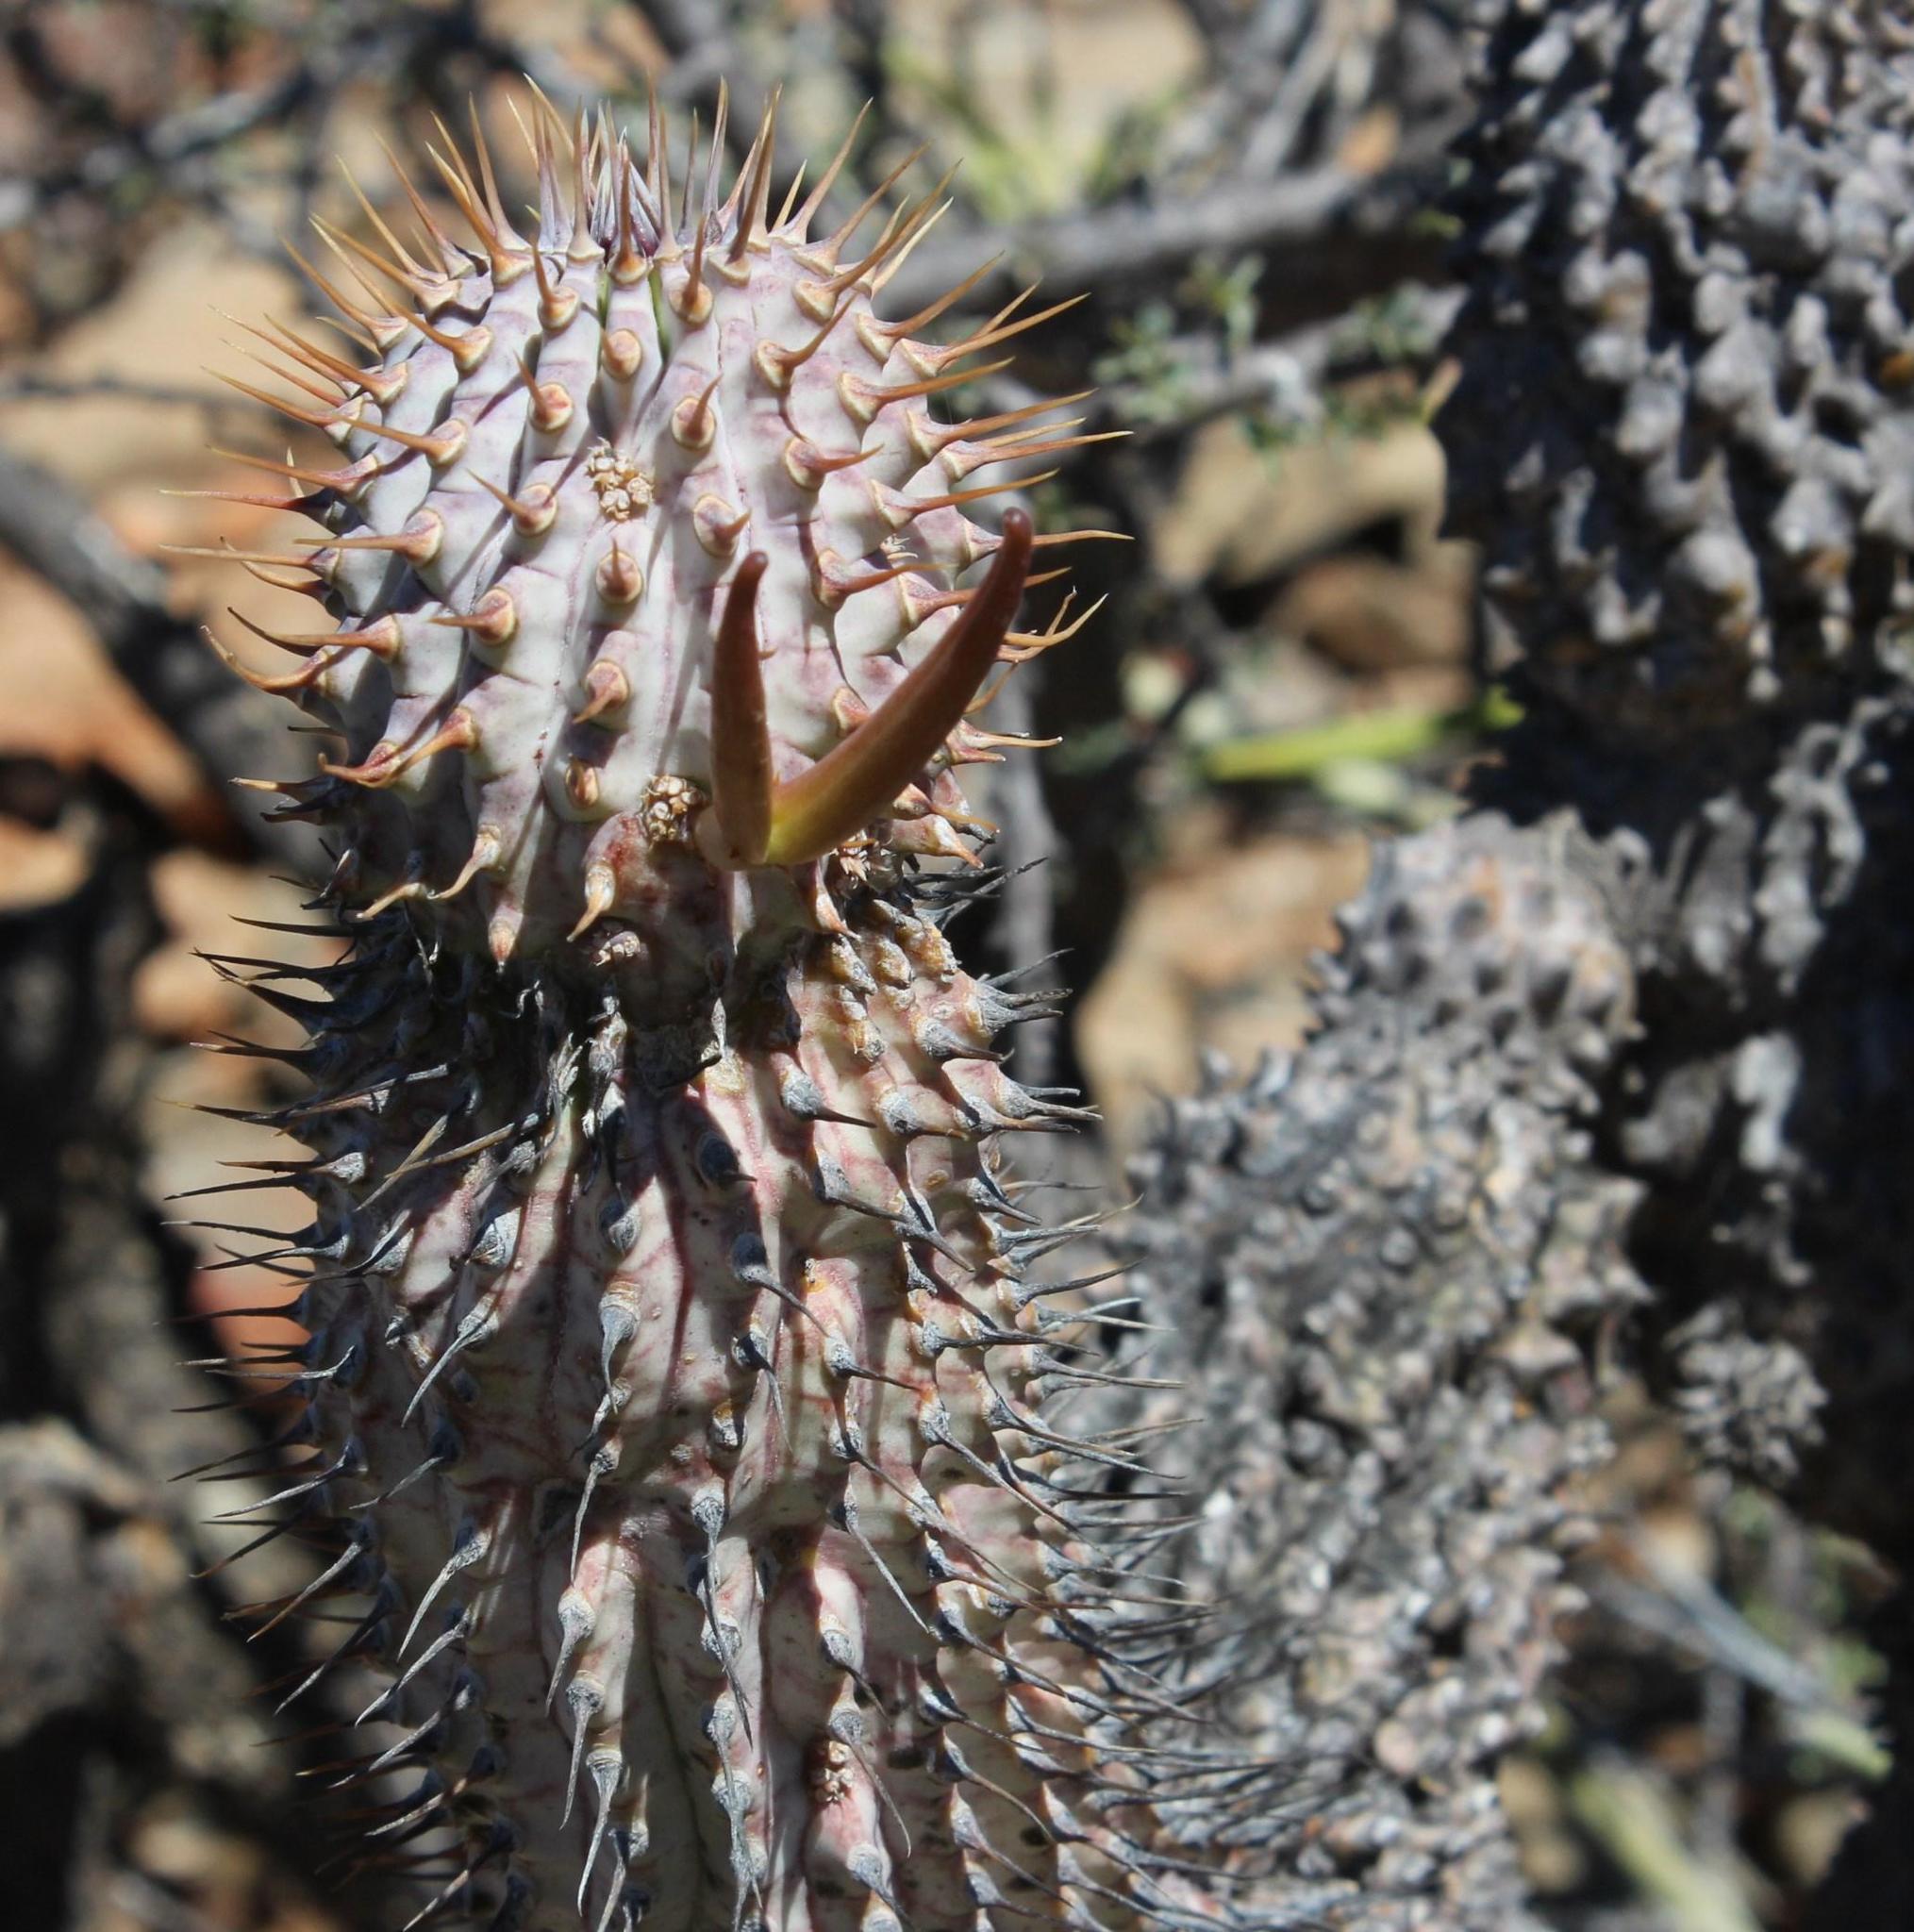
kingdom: Plantae
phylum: Tracheophyta
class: Magnoliopsida
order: Gentianales
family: Apocynaceae
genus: Ceropegia
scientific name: Ceropegia alstonii
